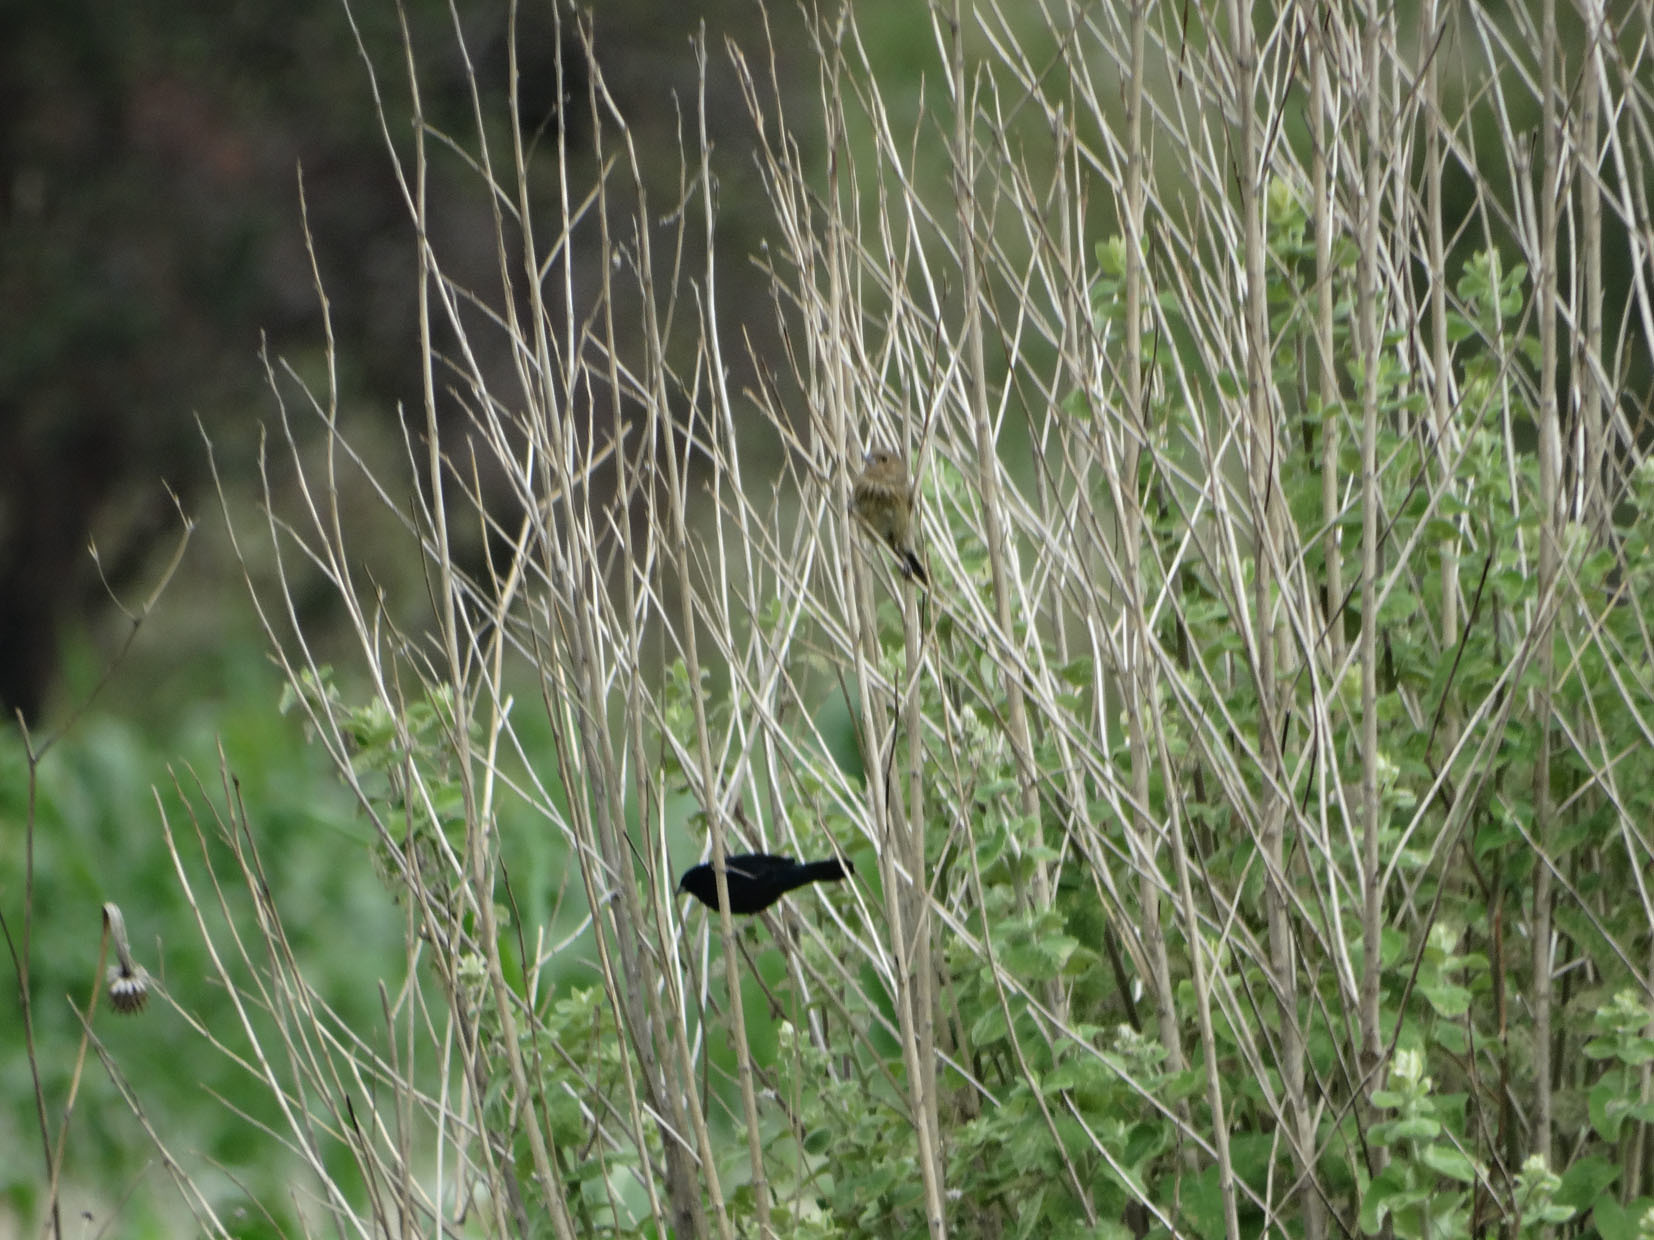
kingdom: Animalia
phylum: Chordata
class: Aves
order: Passeriformes
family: Thraupidae
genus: Volatinia
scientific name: Volatinia jacarina
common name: Blue-black grassquit
